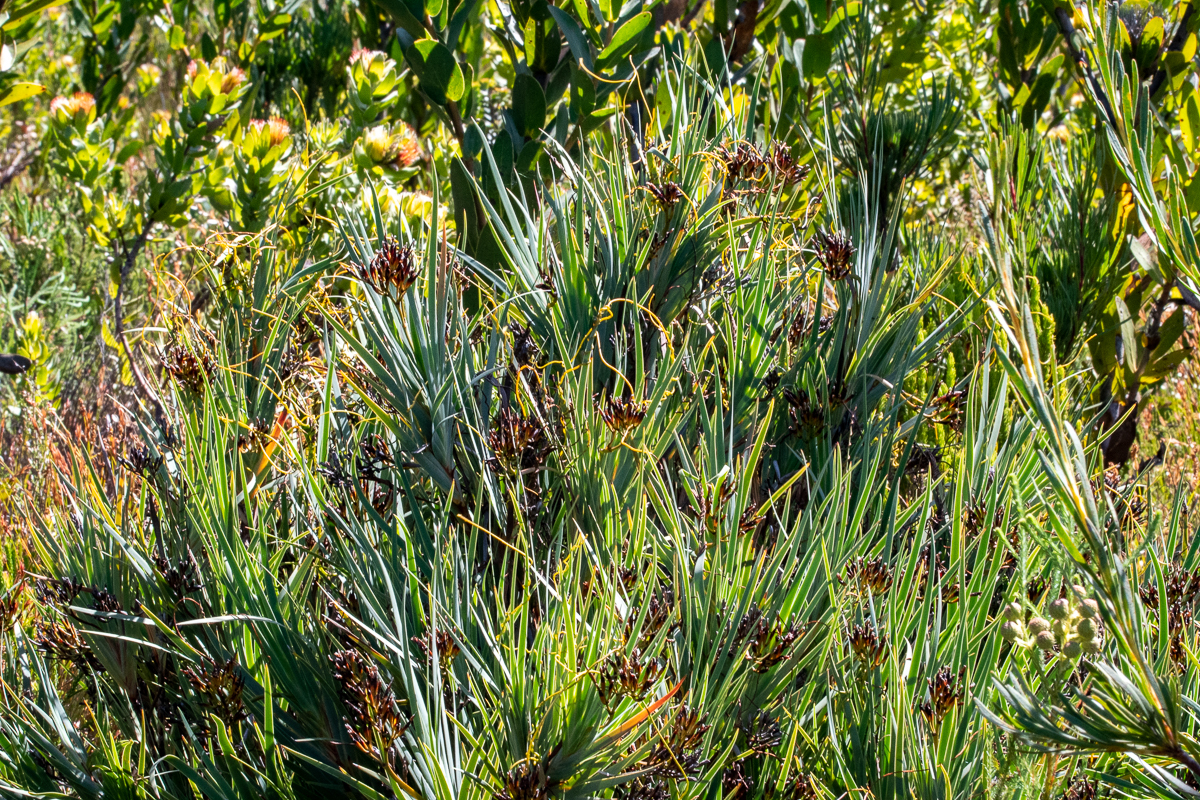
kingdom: Plantae
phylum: Tracheophyta
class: Liliopsida
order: Asparagales
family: Iridaceae
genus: Nivenia
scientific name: Nivenia stokoei
